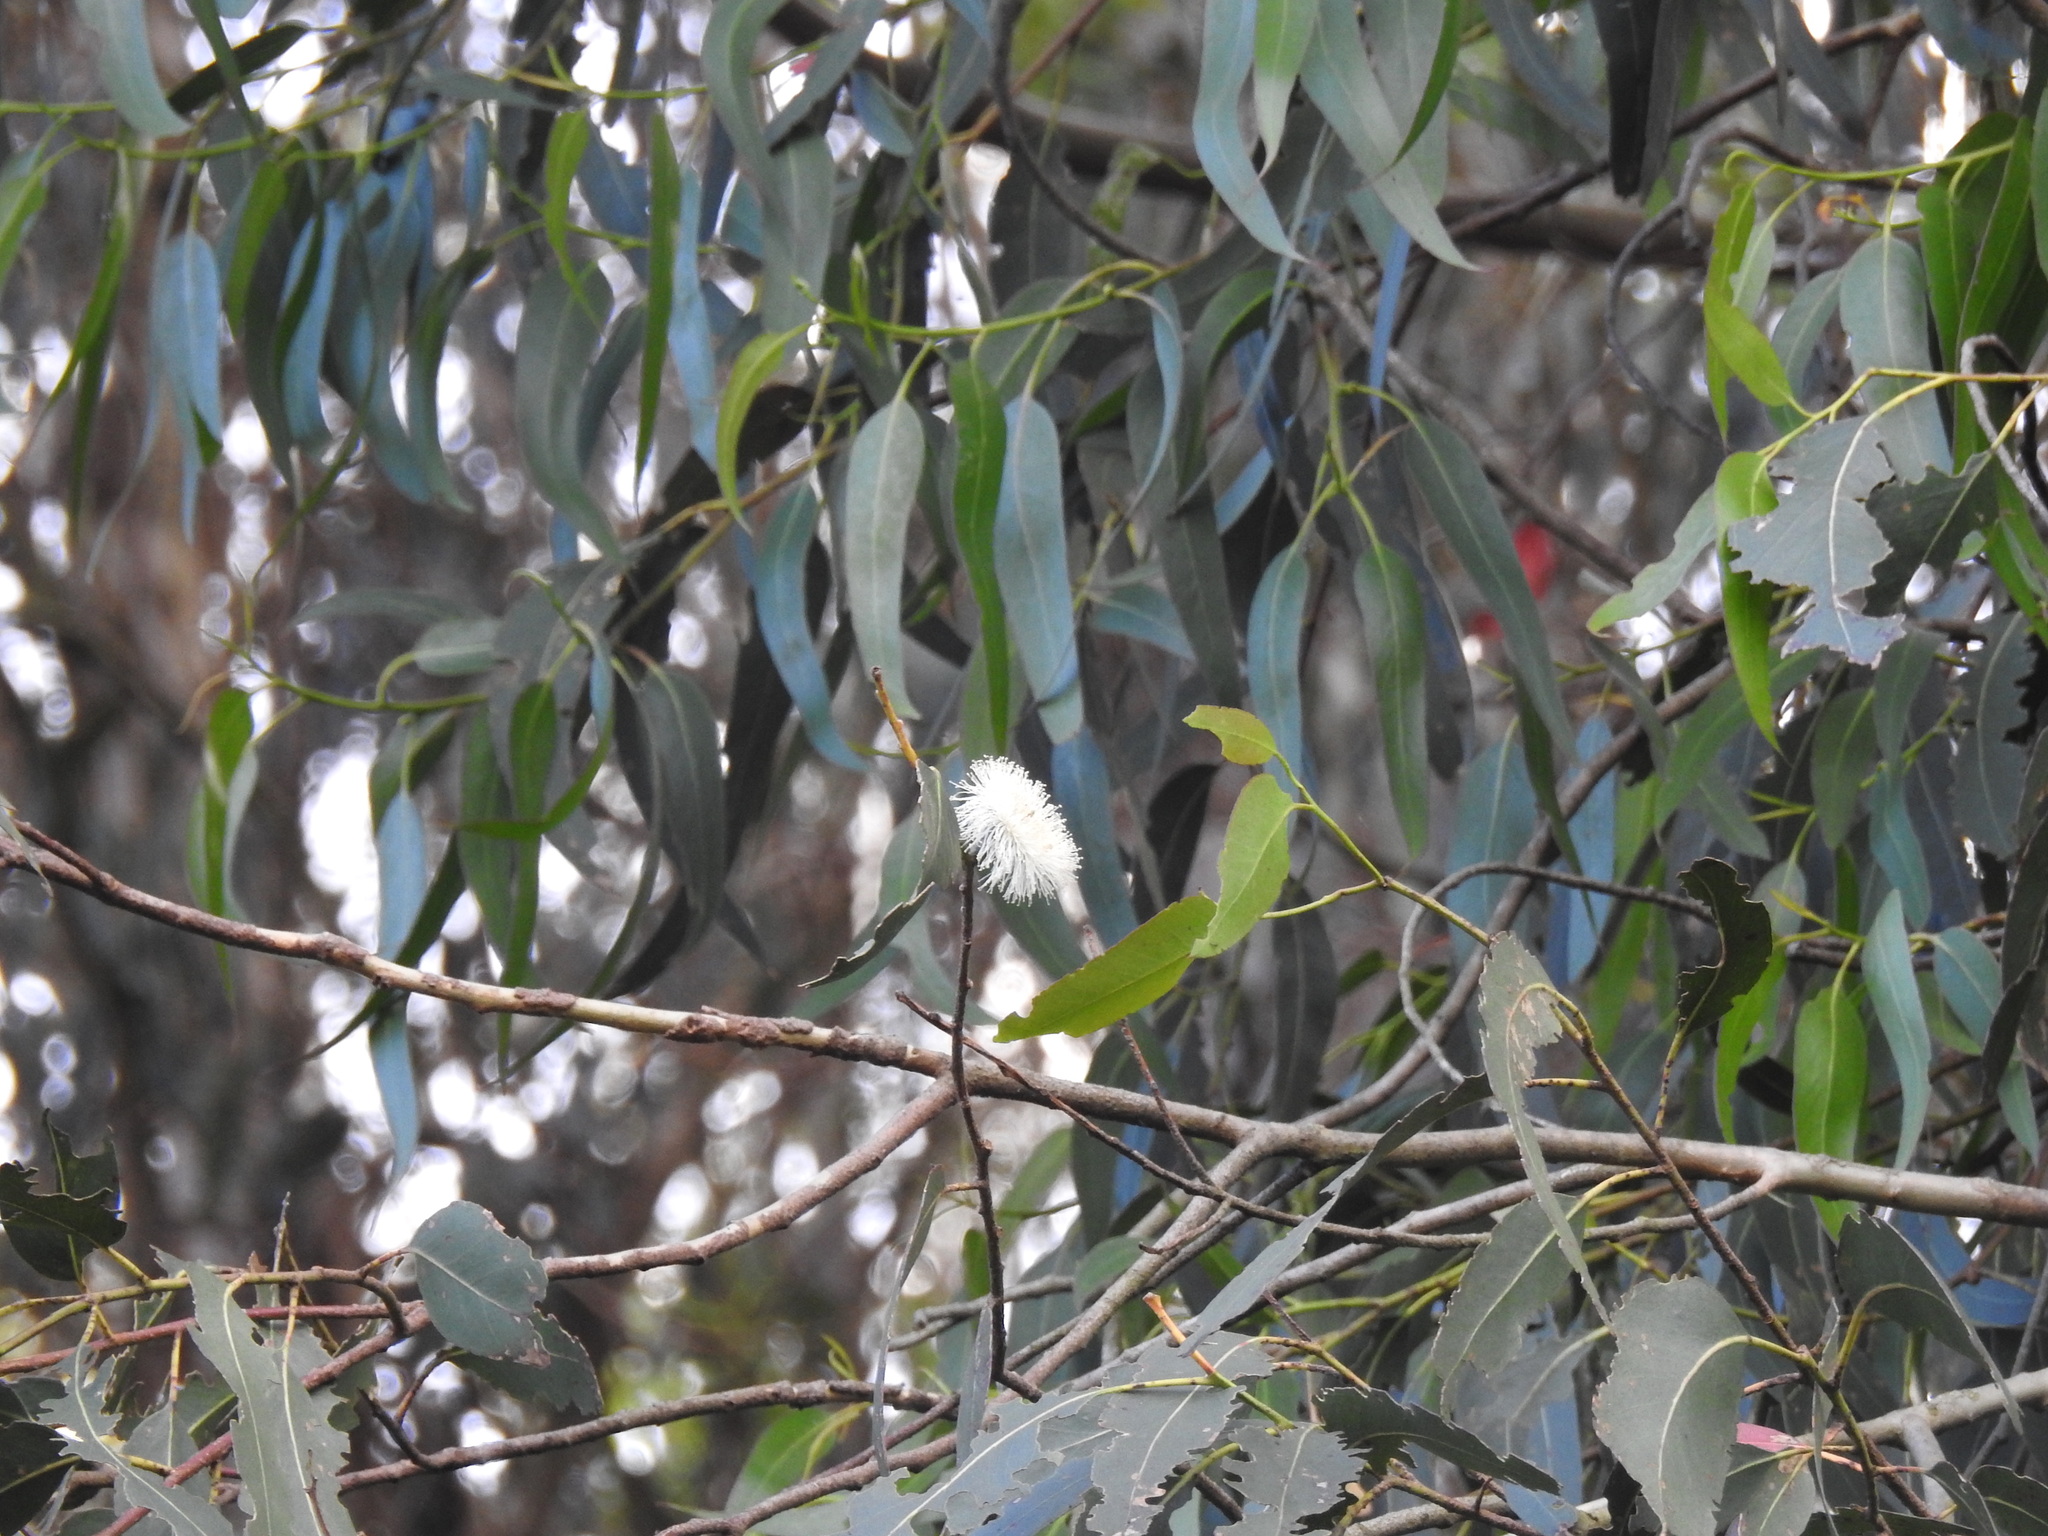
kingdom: Plantae
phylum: Tracheophyta
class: Magnoliopsida
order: Myrtales
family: Myrtaceae
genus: Eucalyptus
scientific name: Eucalyptus globulus
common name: Southern blue-gum
